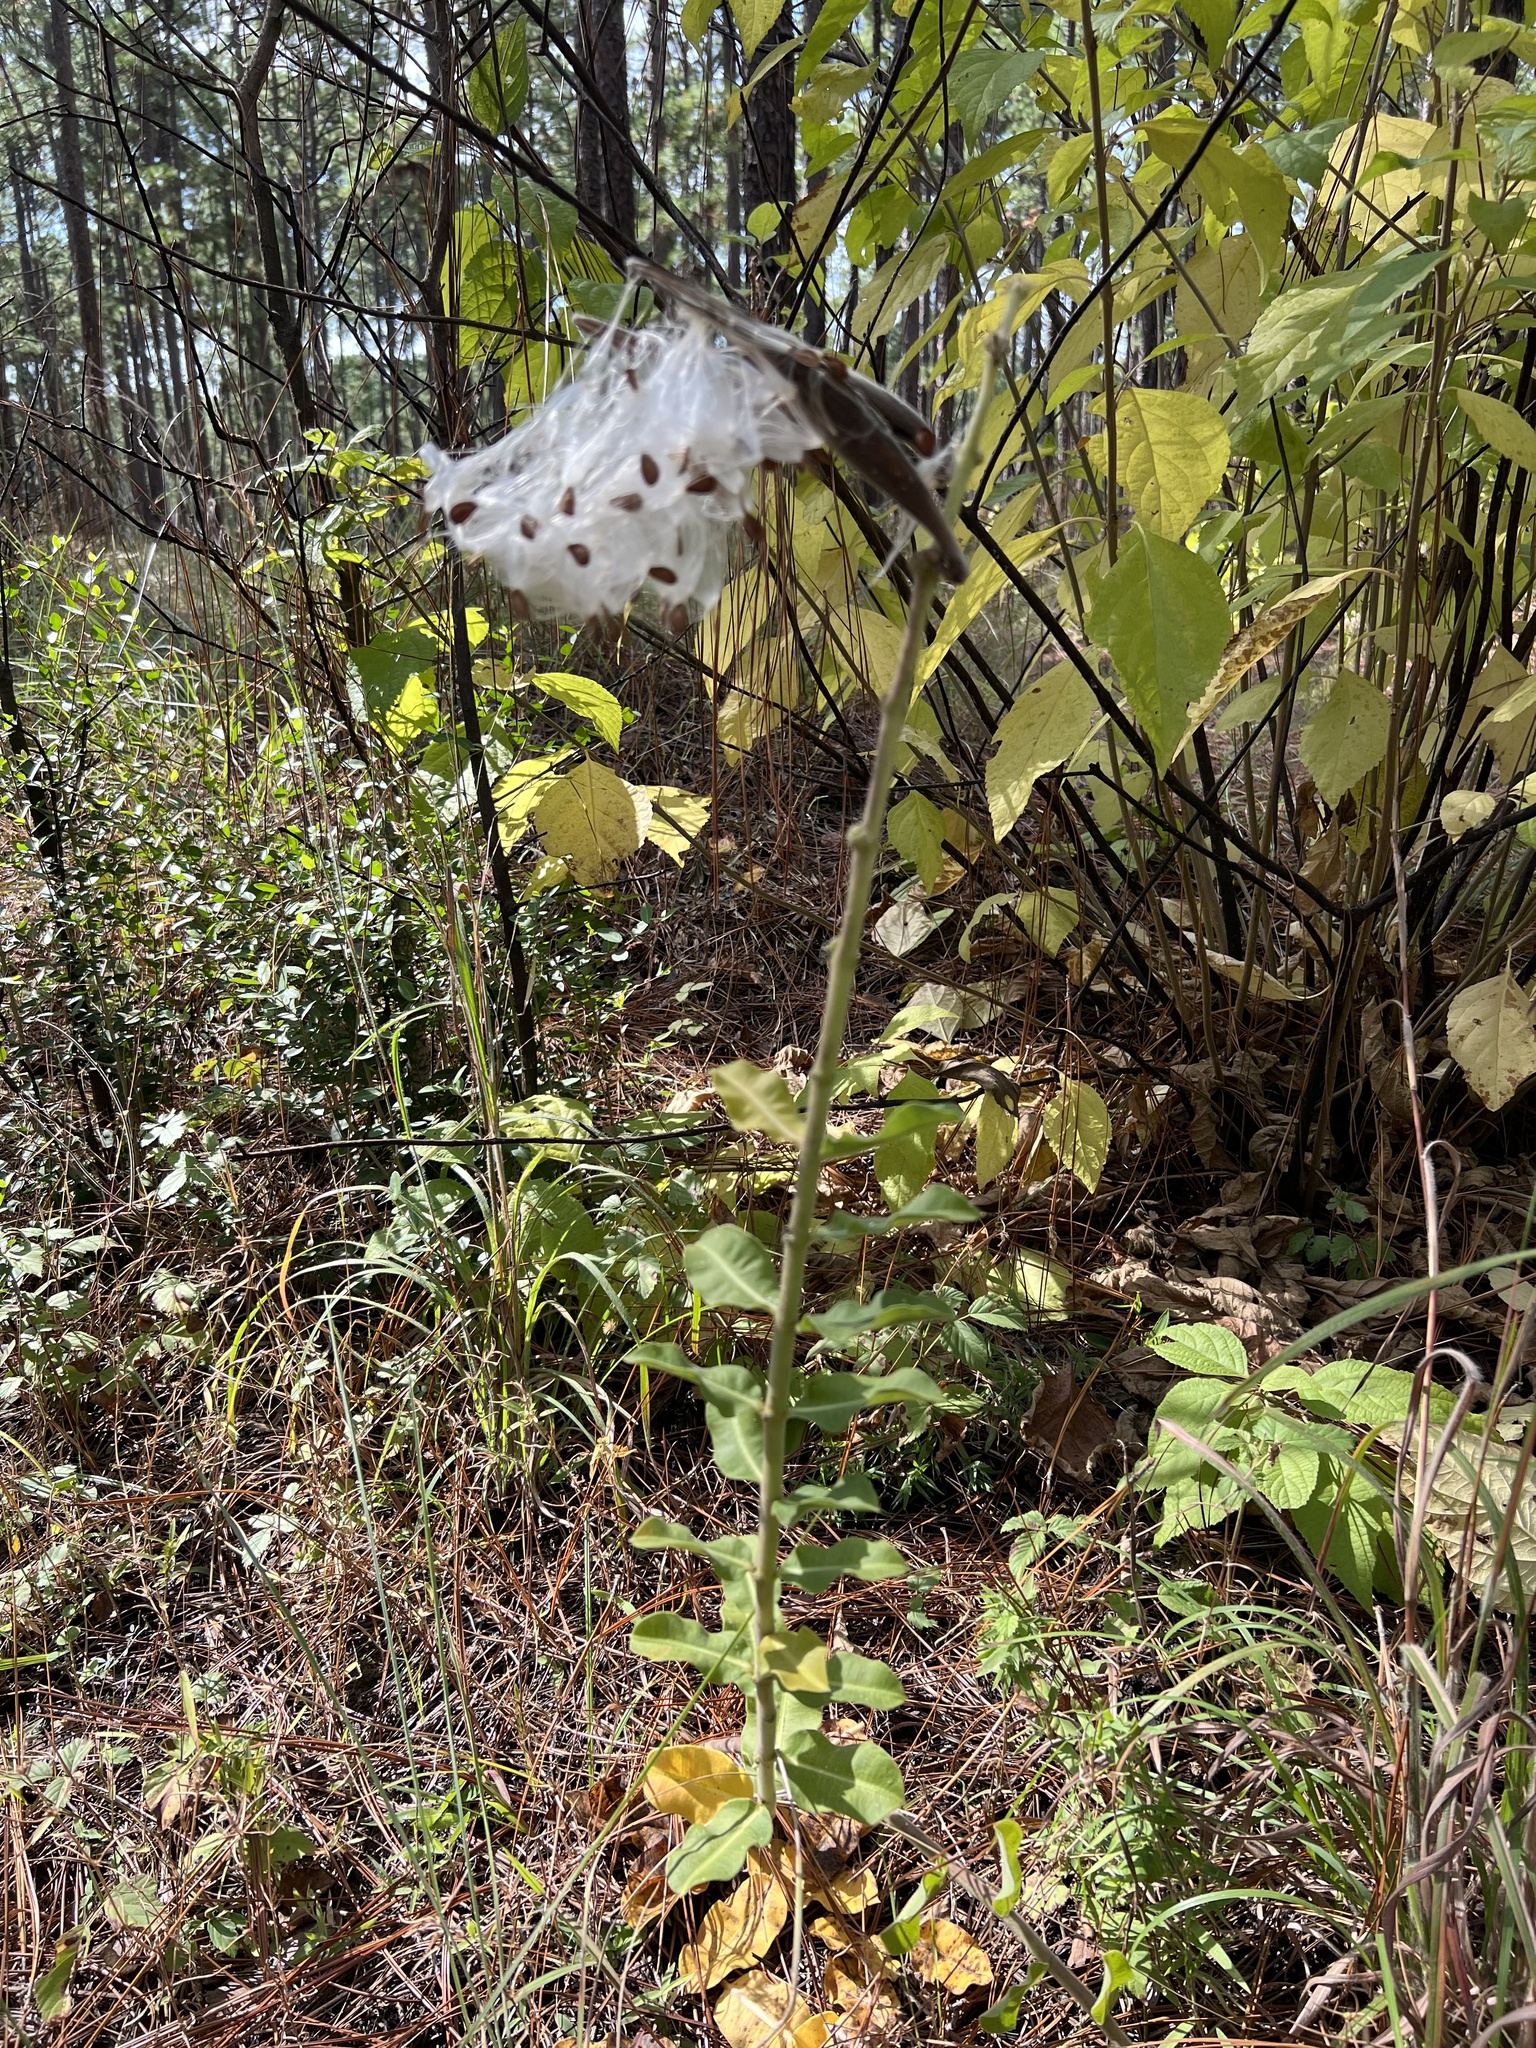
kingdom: Plantae
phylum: Tracheophyta
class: Magnoliopsida
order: Gentianales
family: Apocynaceae
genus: Asclepias
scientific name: Asclepias obovata
